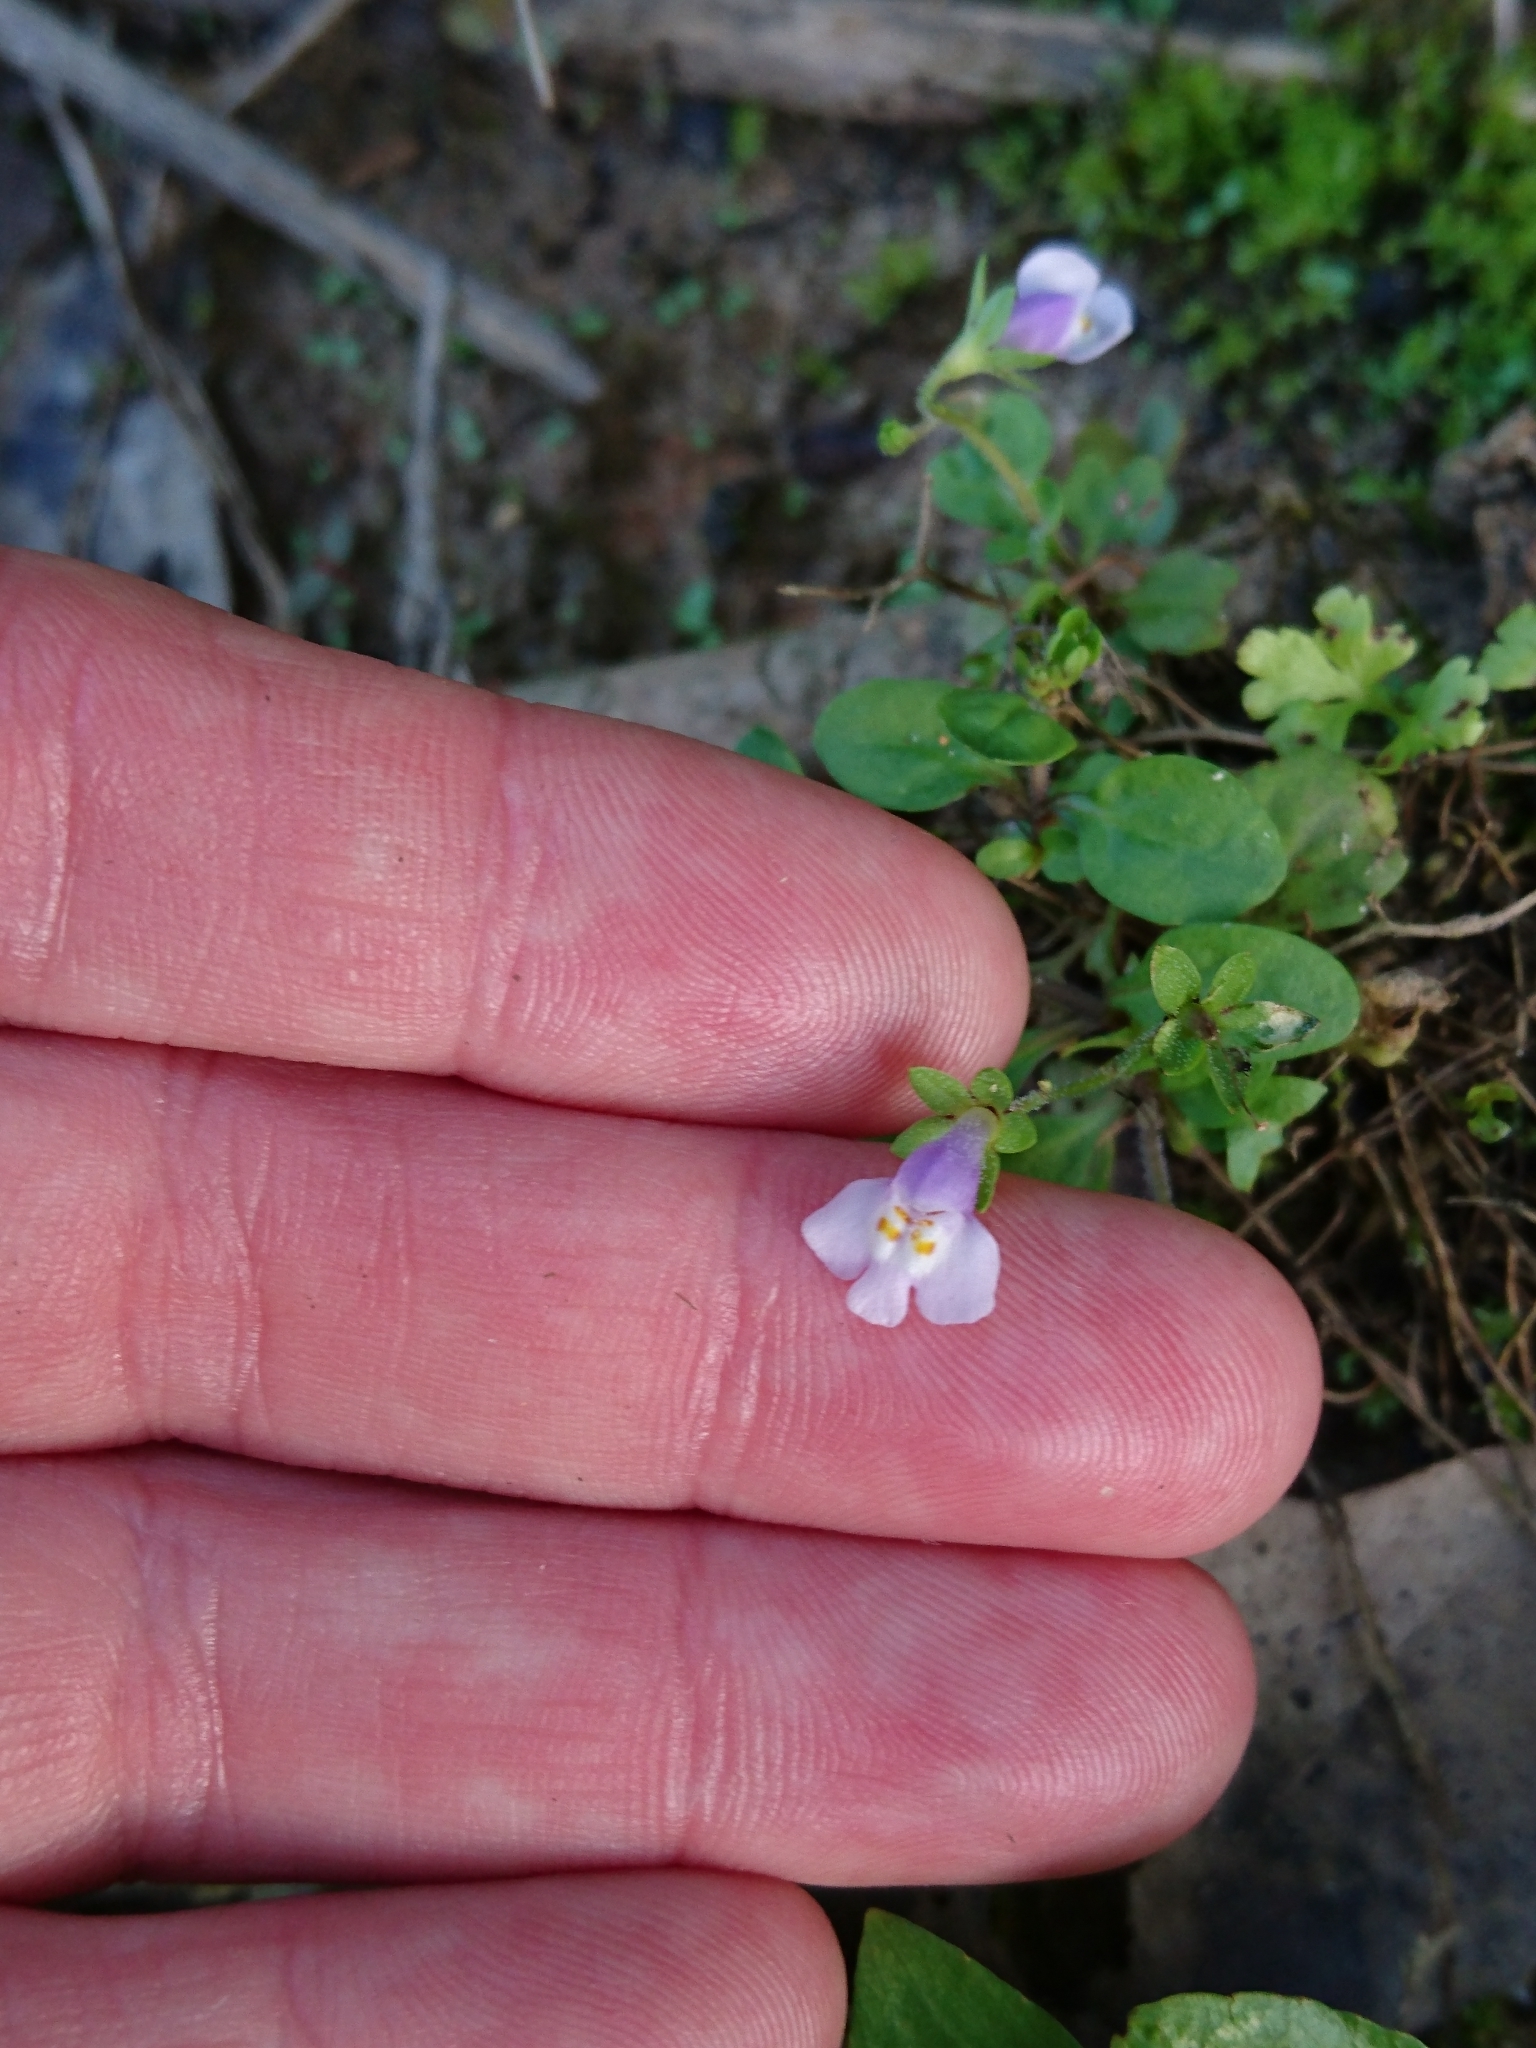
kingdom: Plantae
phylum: Tracheophyta
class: Magnoliopsida
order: Lamiales
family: Mazaceae
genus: Mazus
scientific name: Mazus pumilus
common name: Japanese mazus
